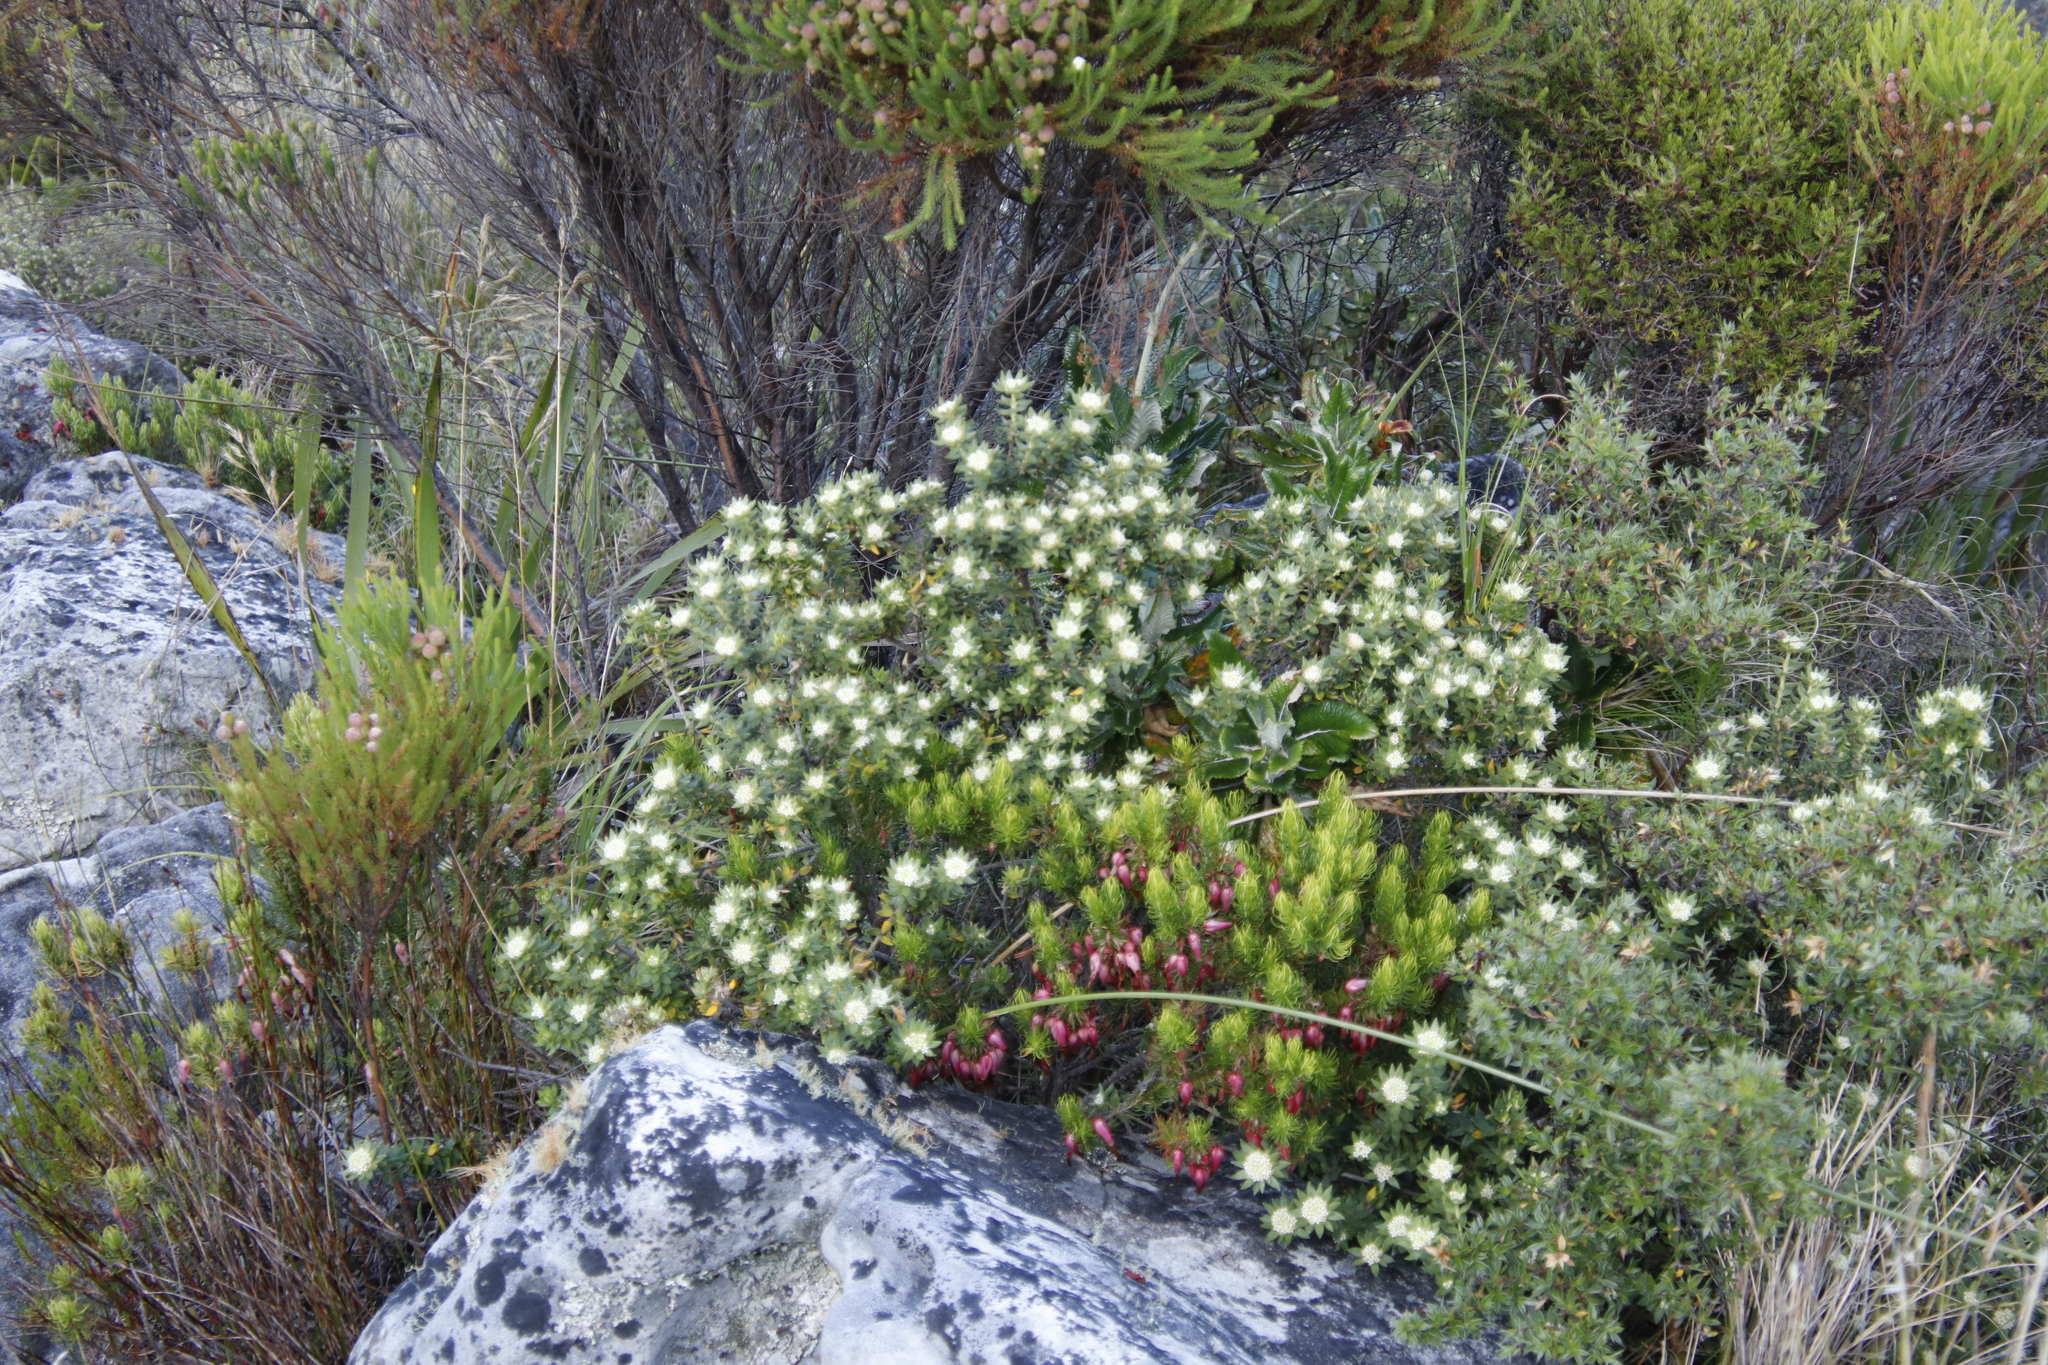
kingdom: Plantae
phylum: Tracheophyta
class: Magnoliopsida
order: Rosales
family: Rhamnaceae
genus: Phylica
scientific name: Phylica dioica
